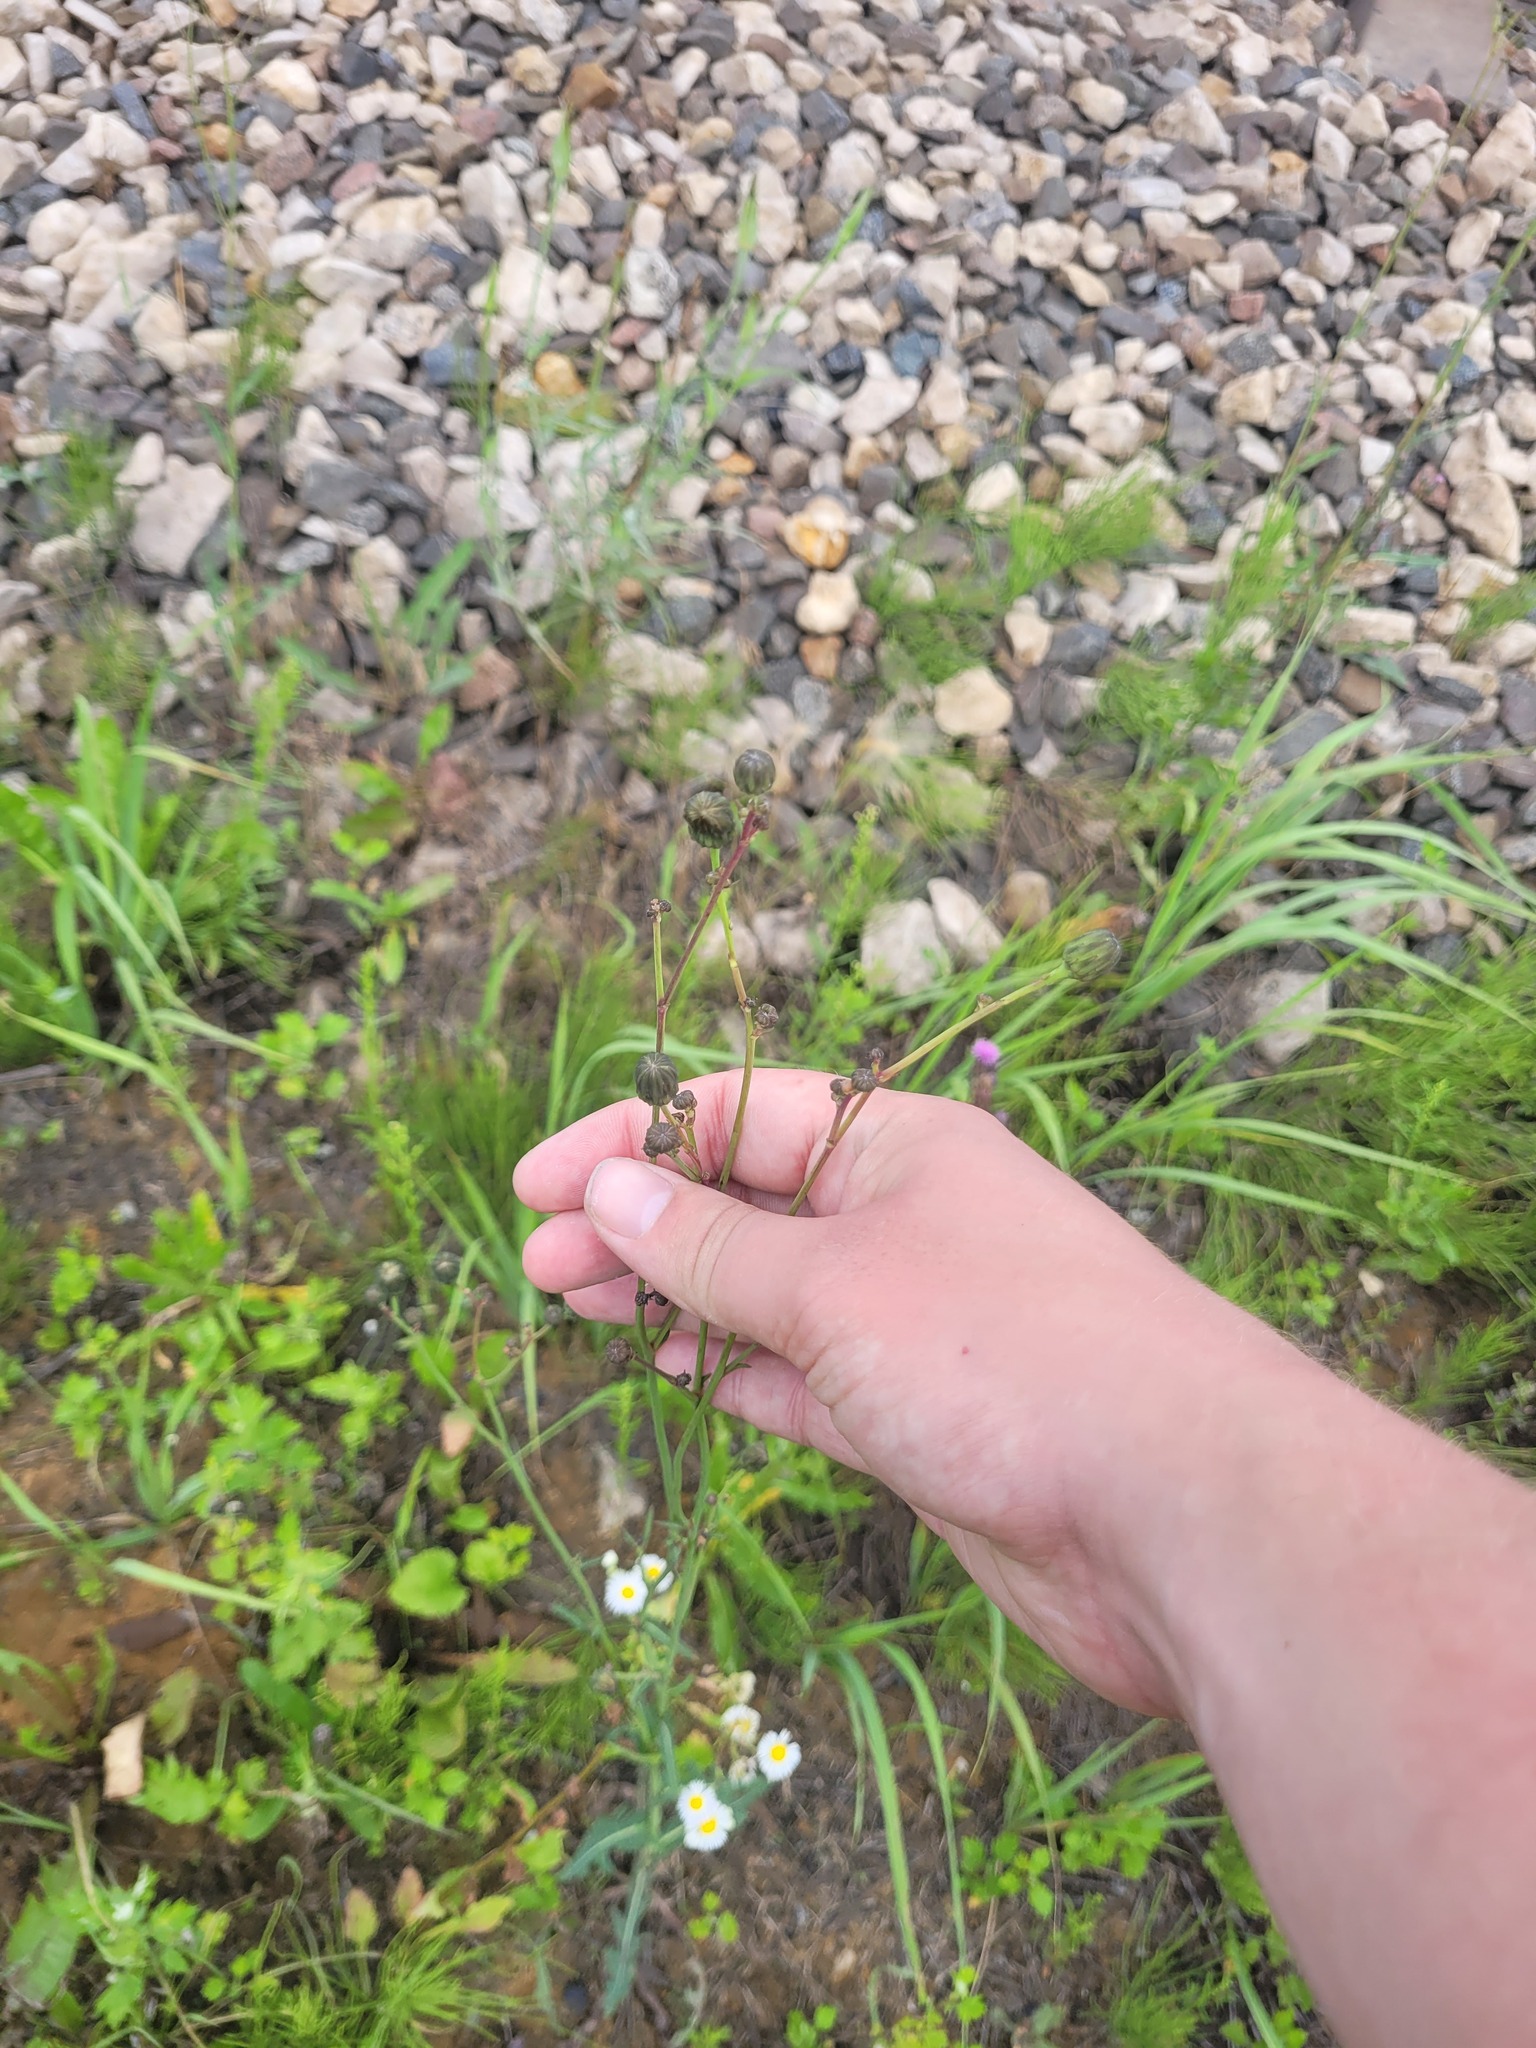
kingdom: Plantae
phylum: Tracheophyta
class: Magnoliopsida
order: Asterales
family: Asteraceae
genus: Sonchus
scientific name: Sonchus arvensis
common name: Perennial sow-thistle
